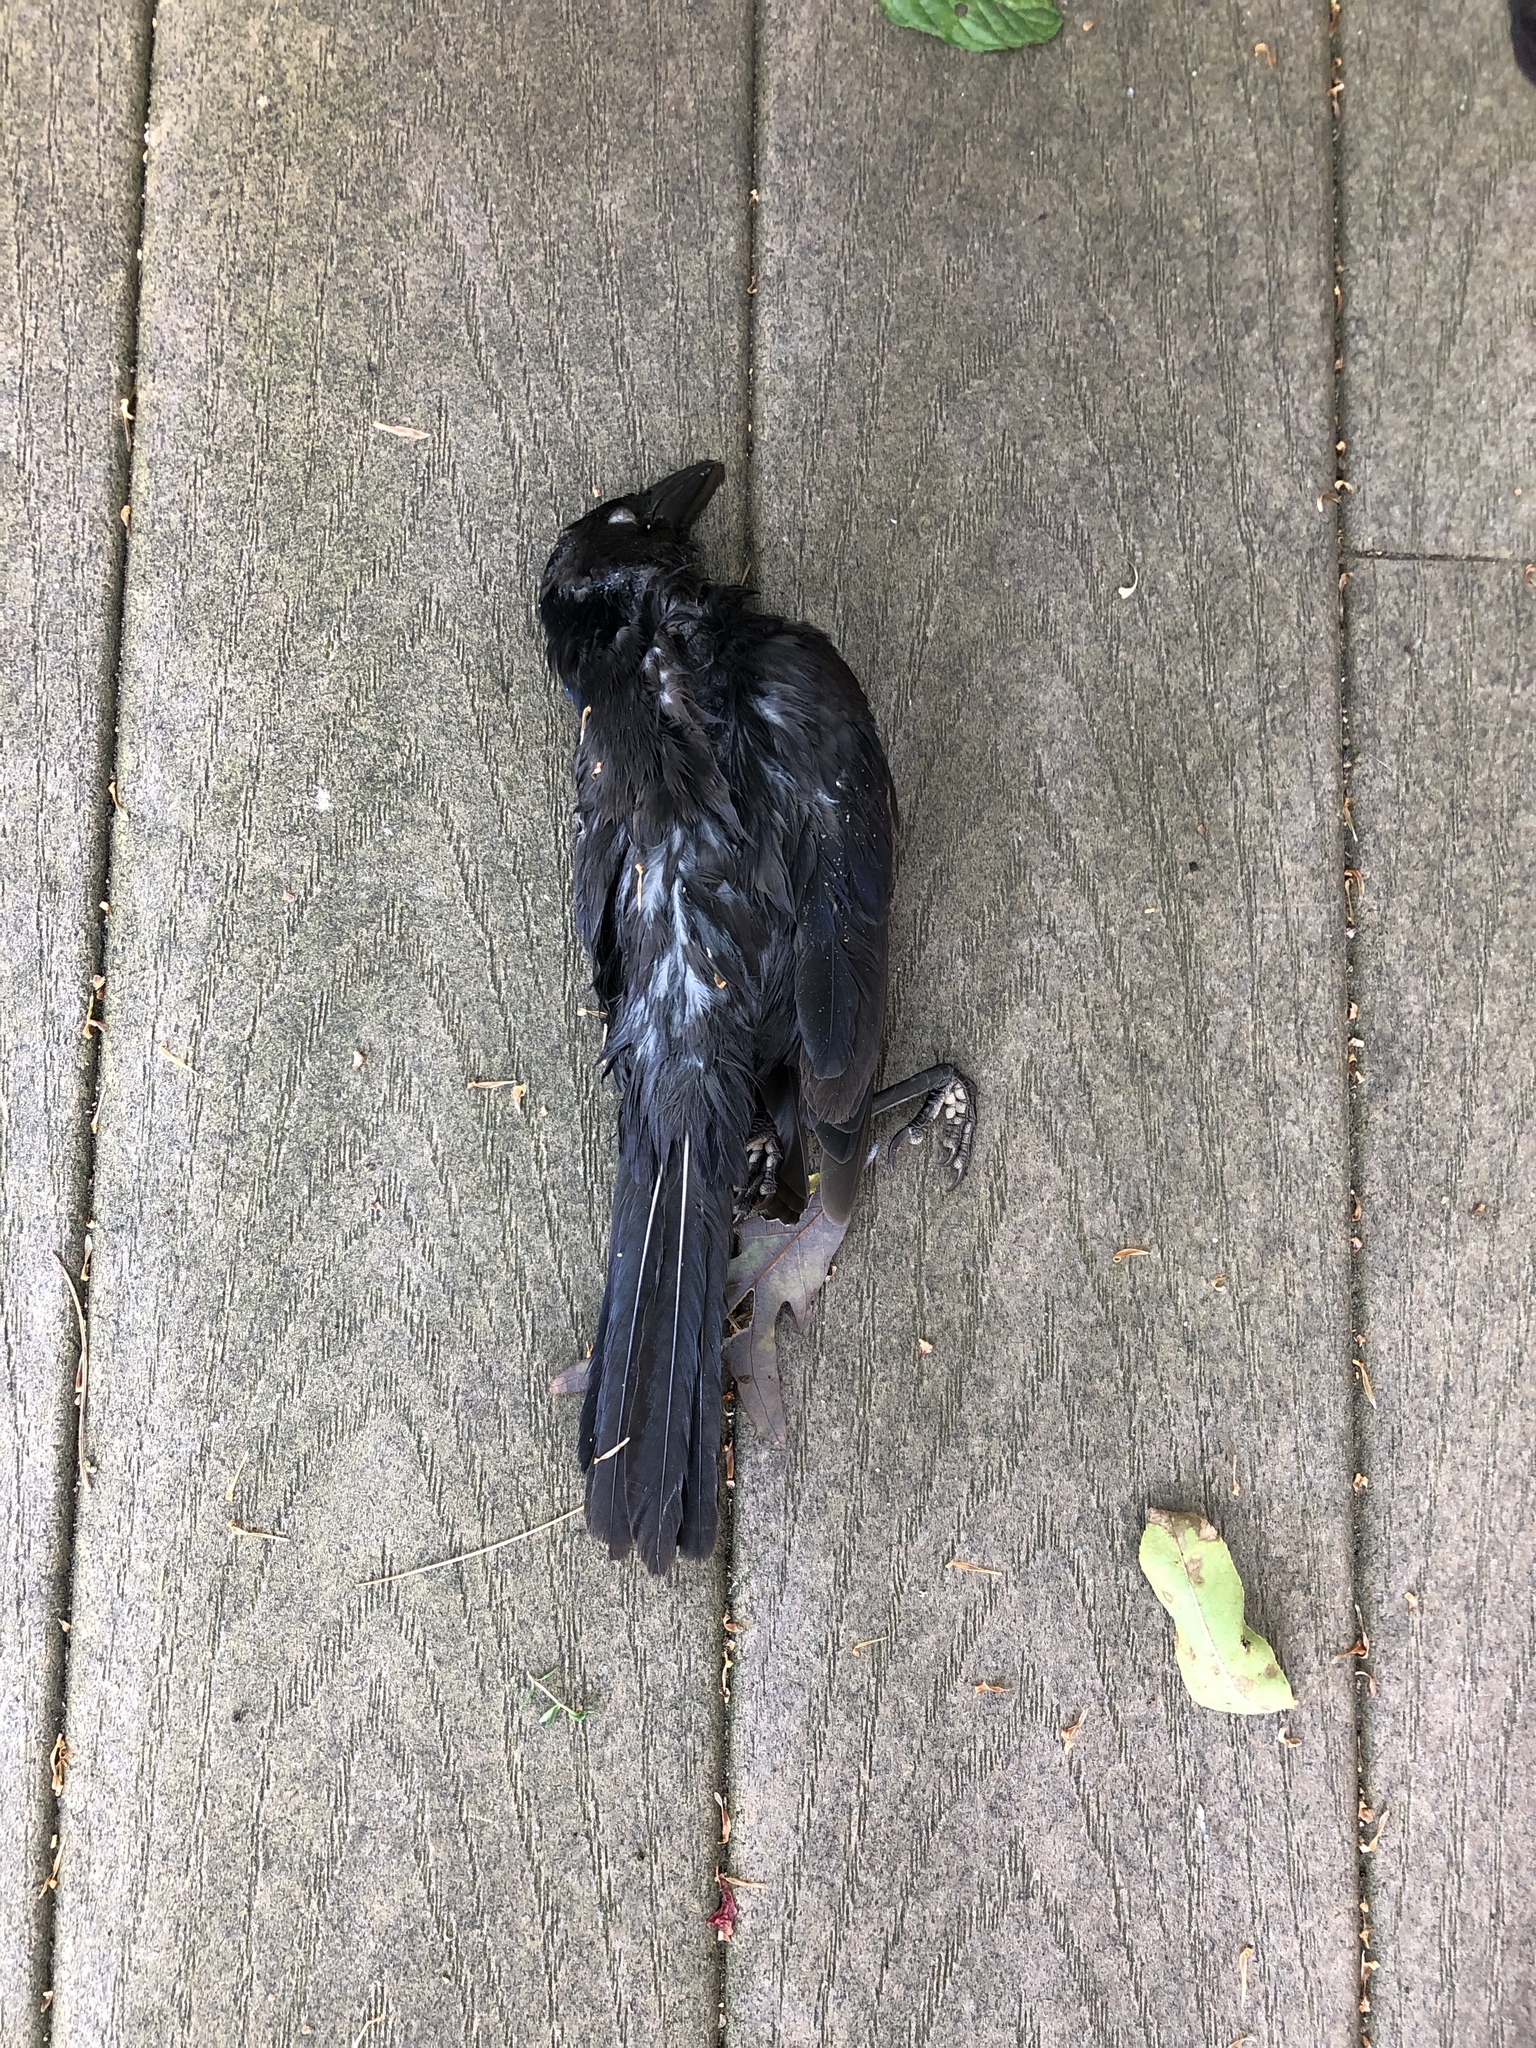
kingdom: Animalia
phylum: Chordata
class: Aves
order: Passeriformes
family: Corvidae
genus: Corvus
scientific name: Corvus brachyrhynchos
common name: American crow
